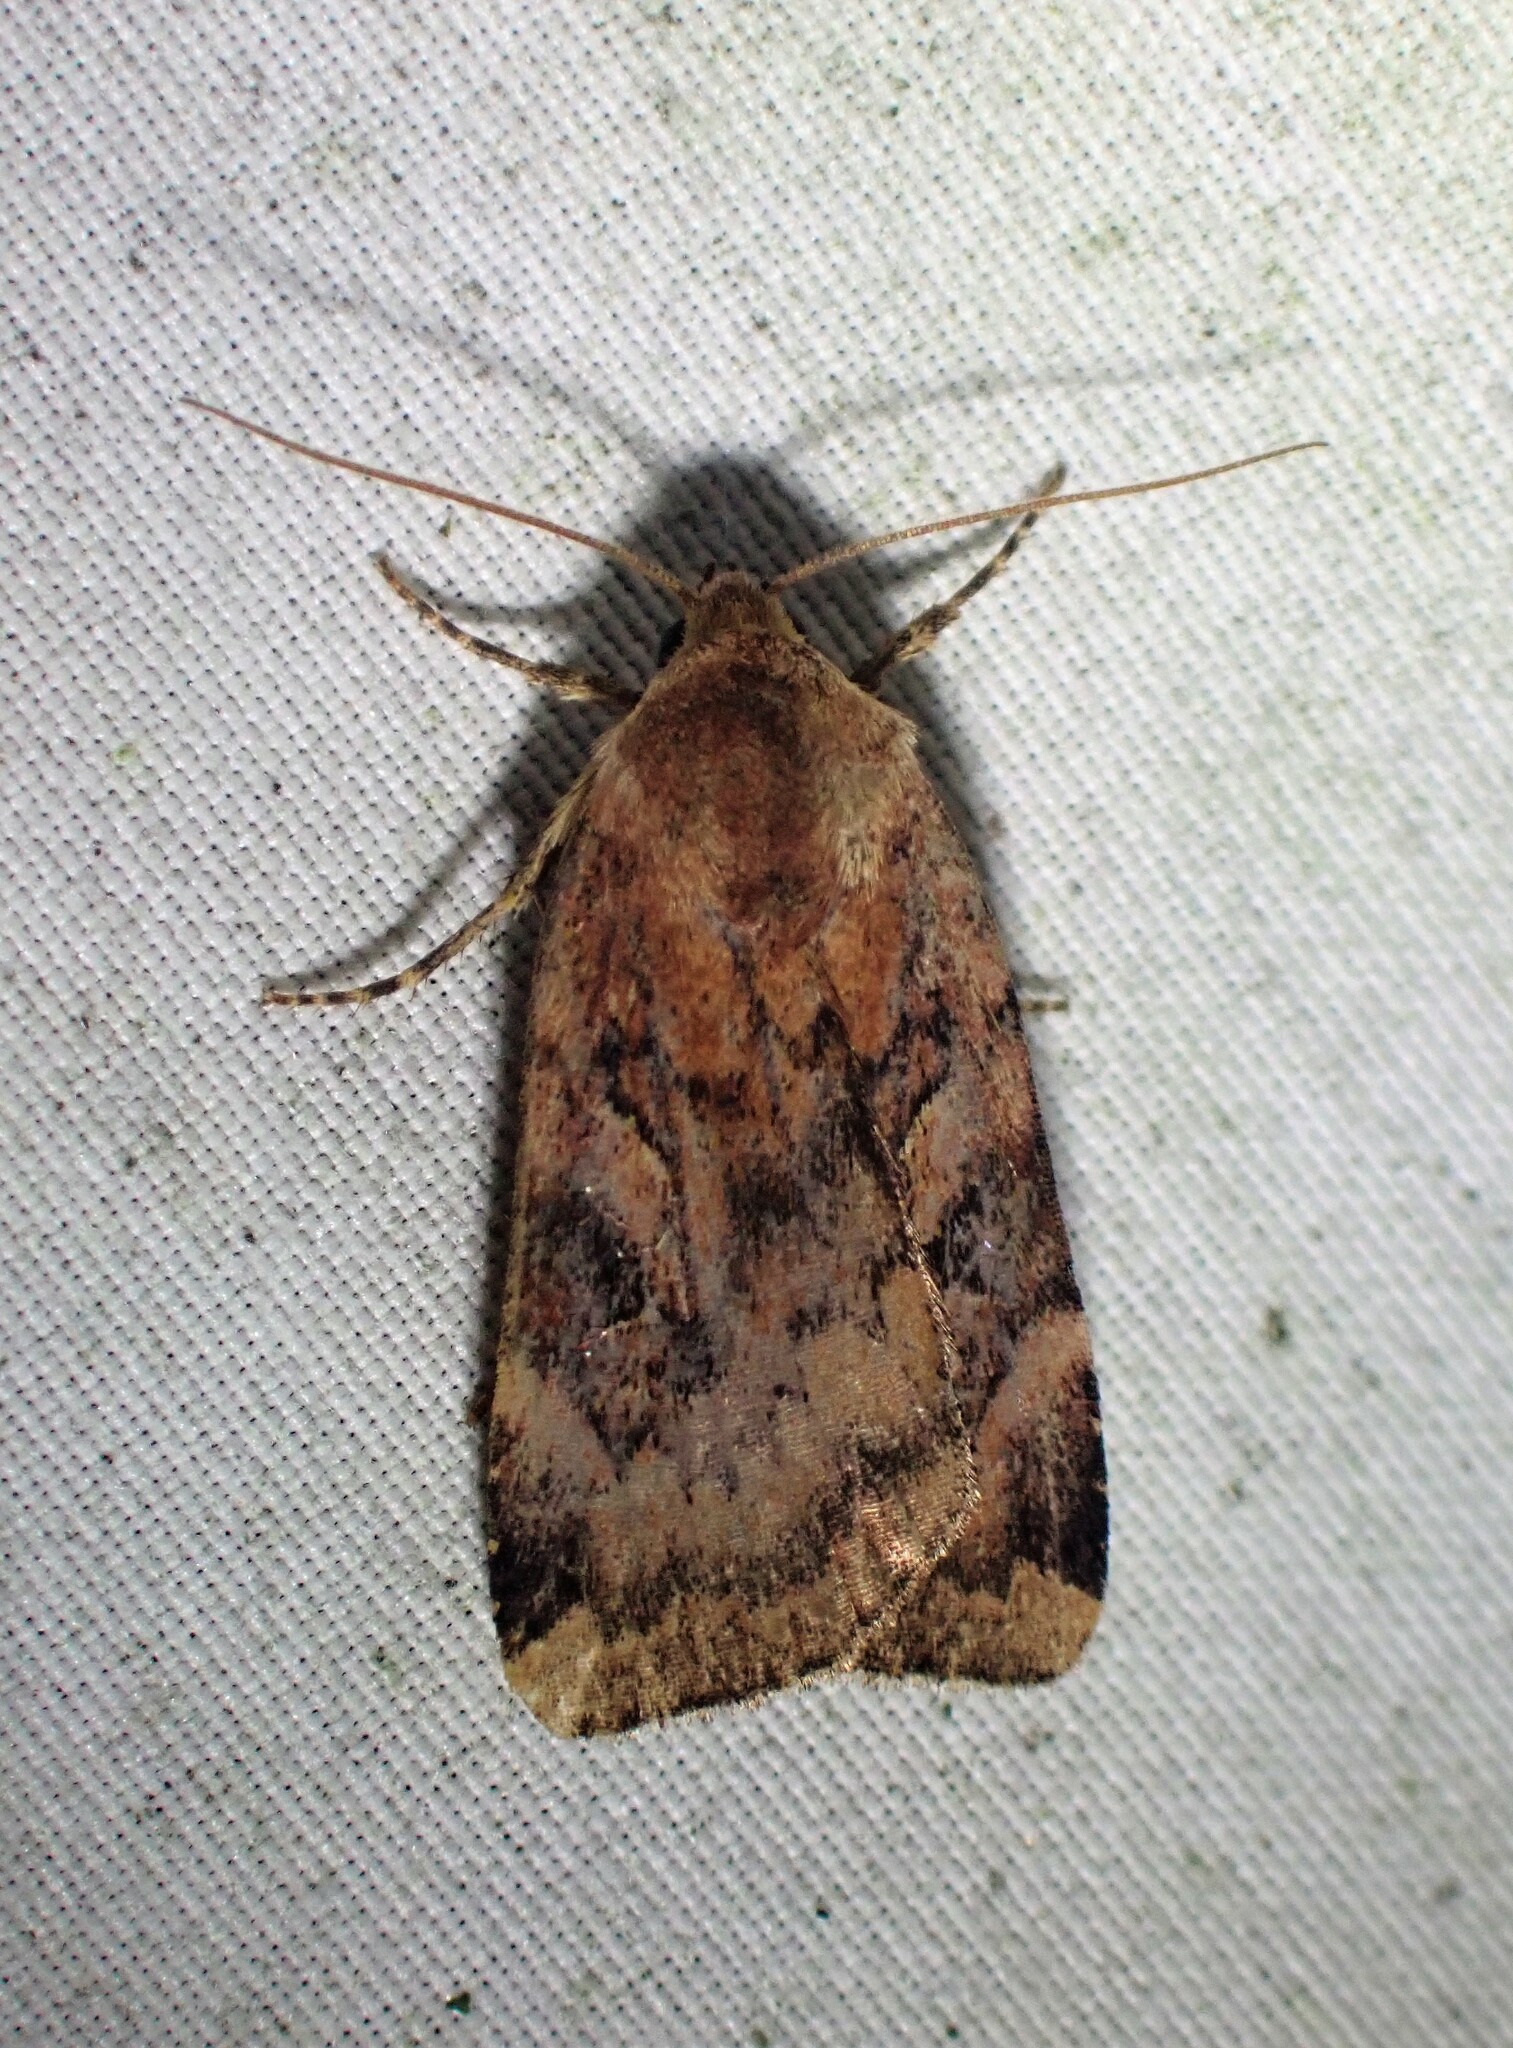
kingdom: Animalia
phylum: Arthropoda
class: Insecta
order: Lepidoptera
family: Noctuidae
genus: Cryptocala
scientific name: Cryptocala acadiensis
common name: Catocaline dart
